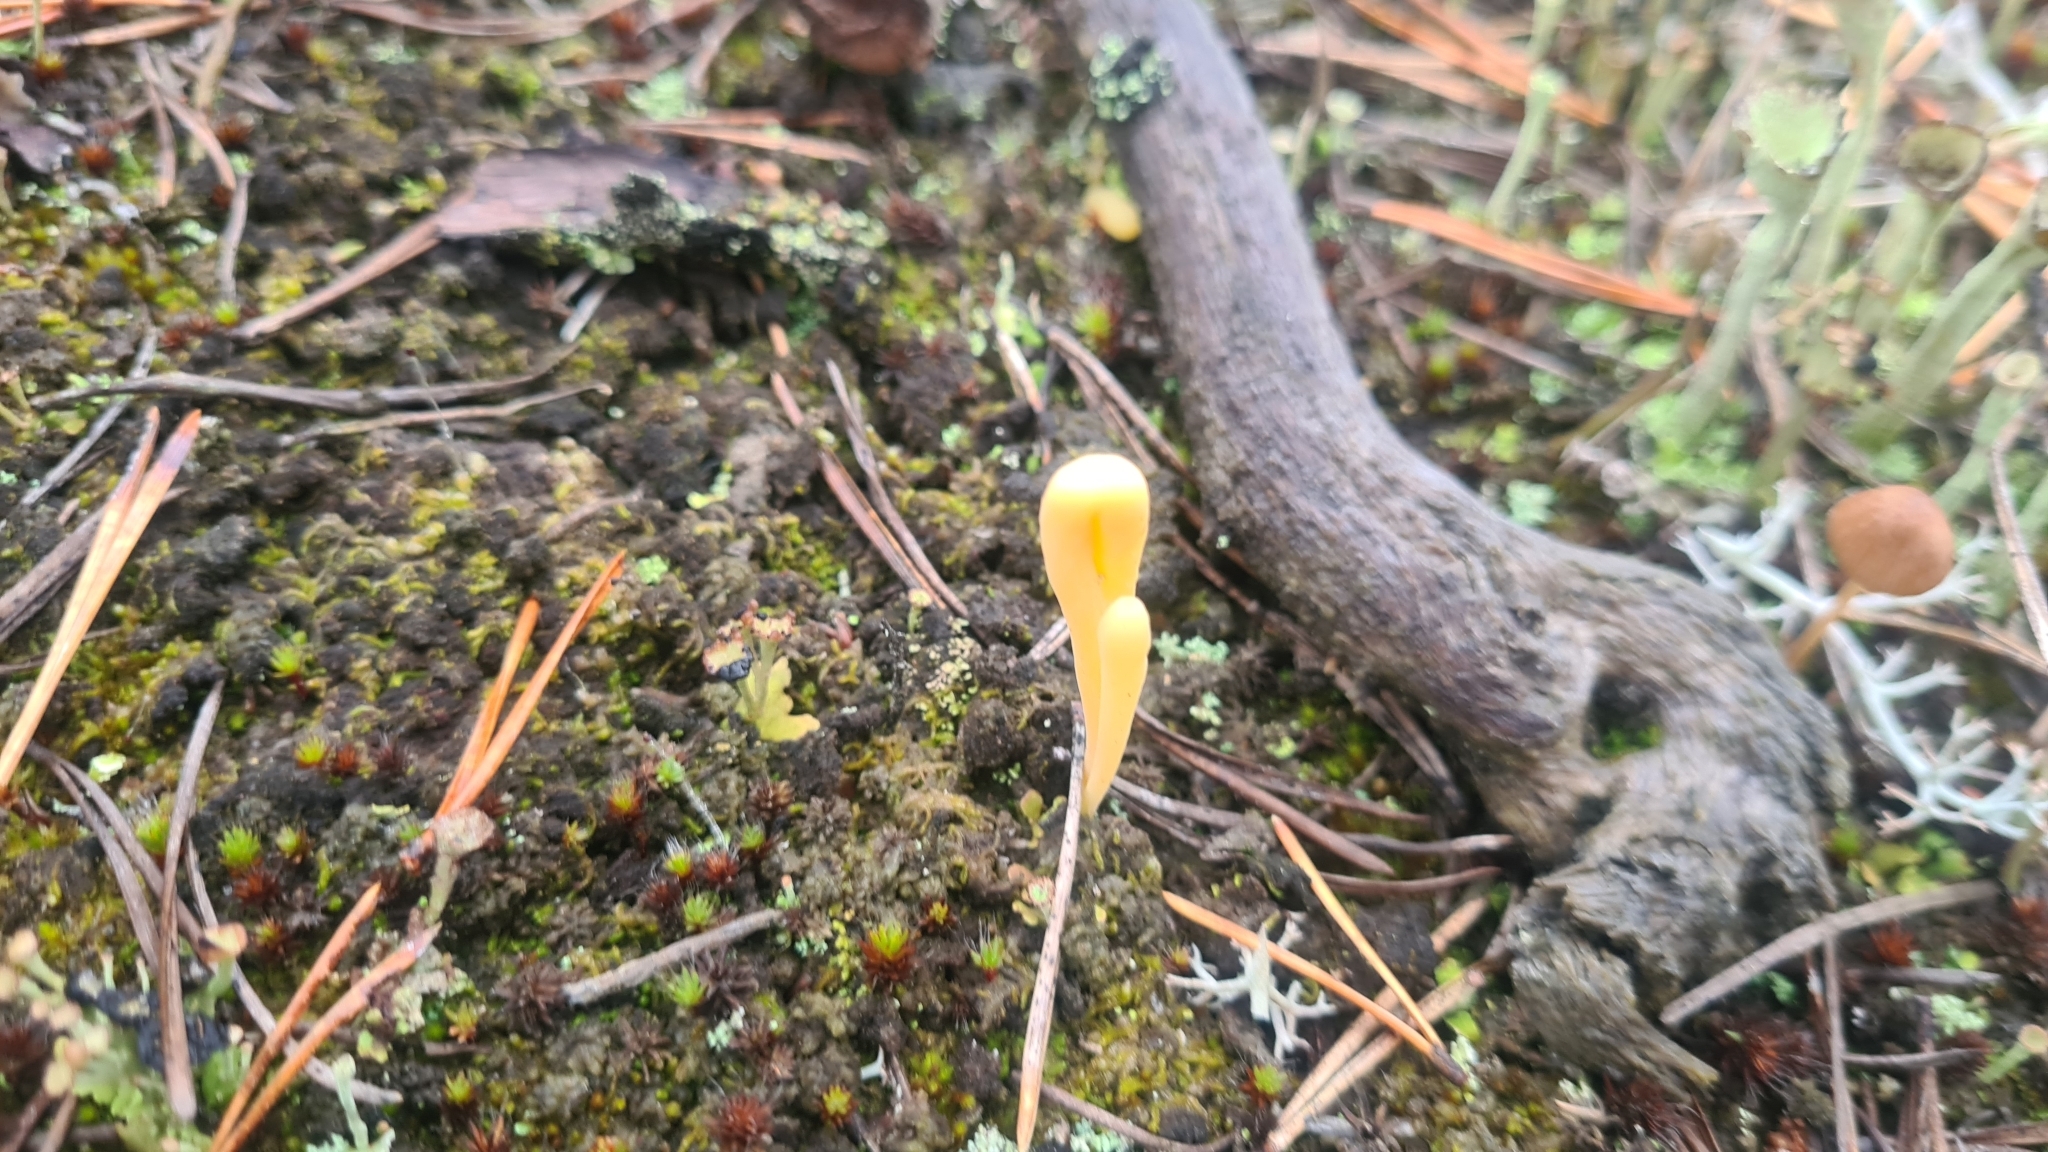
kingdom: Fungi
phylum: Basidiomycota
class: Agaricomycetes
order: Agaricales
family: Clavariaceae
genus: Clavaria
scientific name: Clavaria argillacea
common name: Moor club
